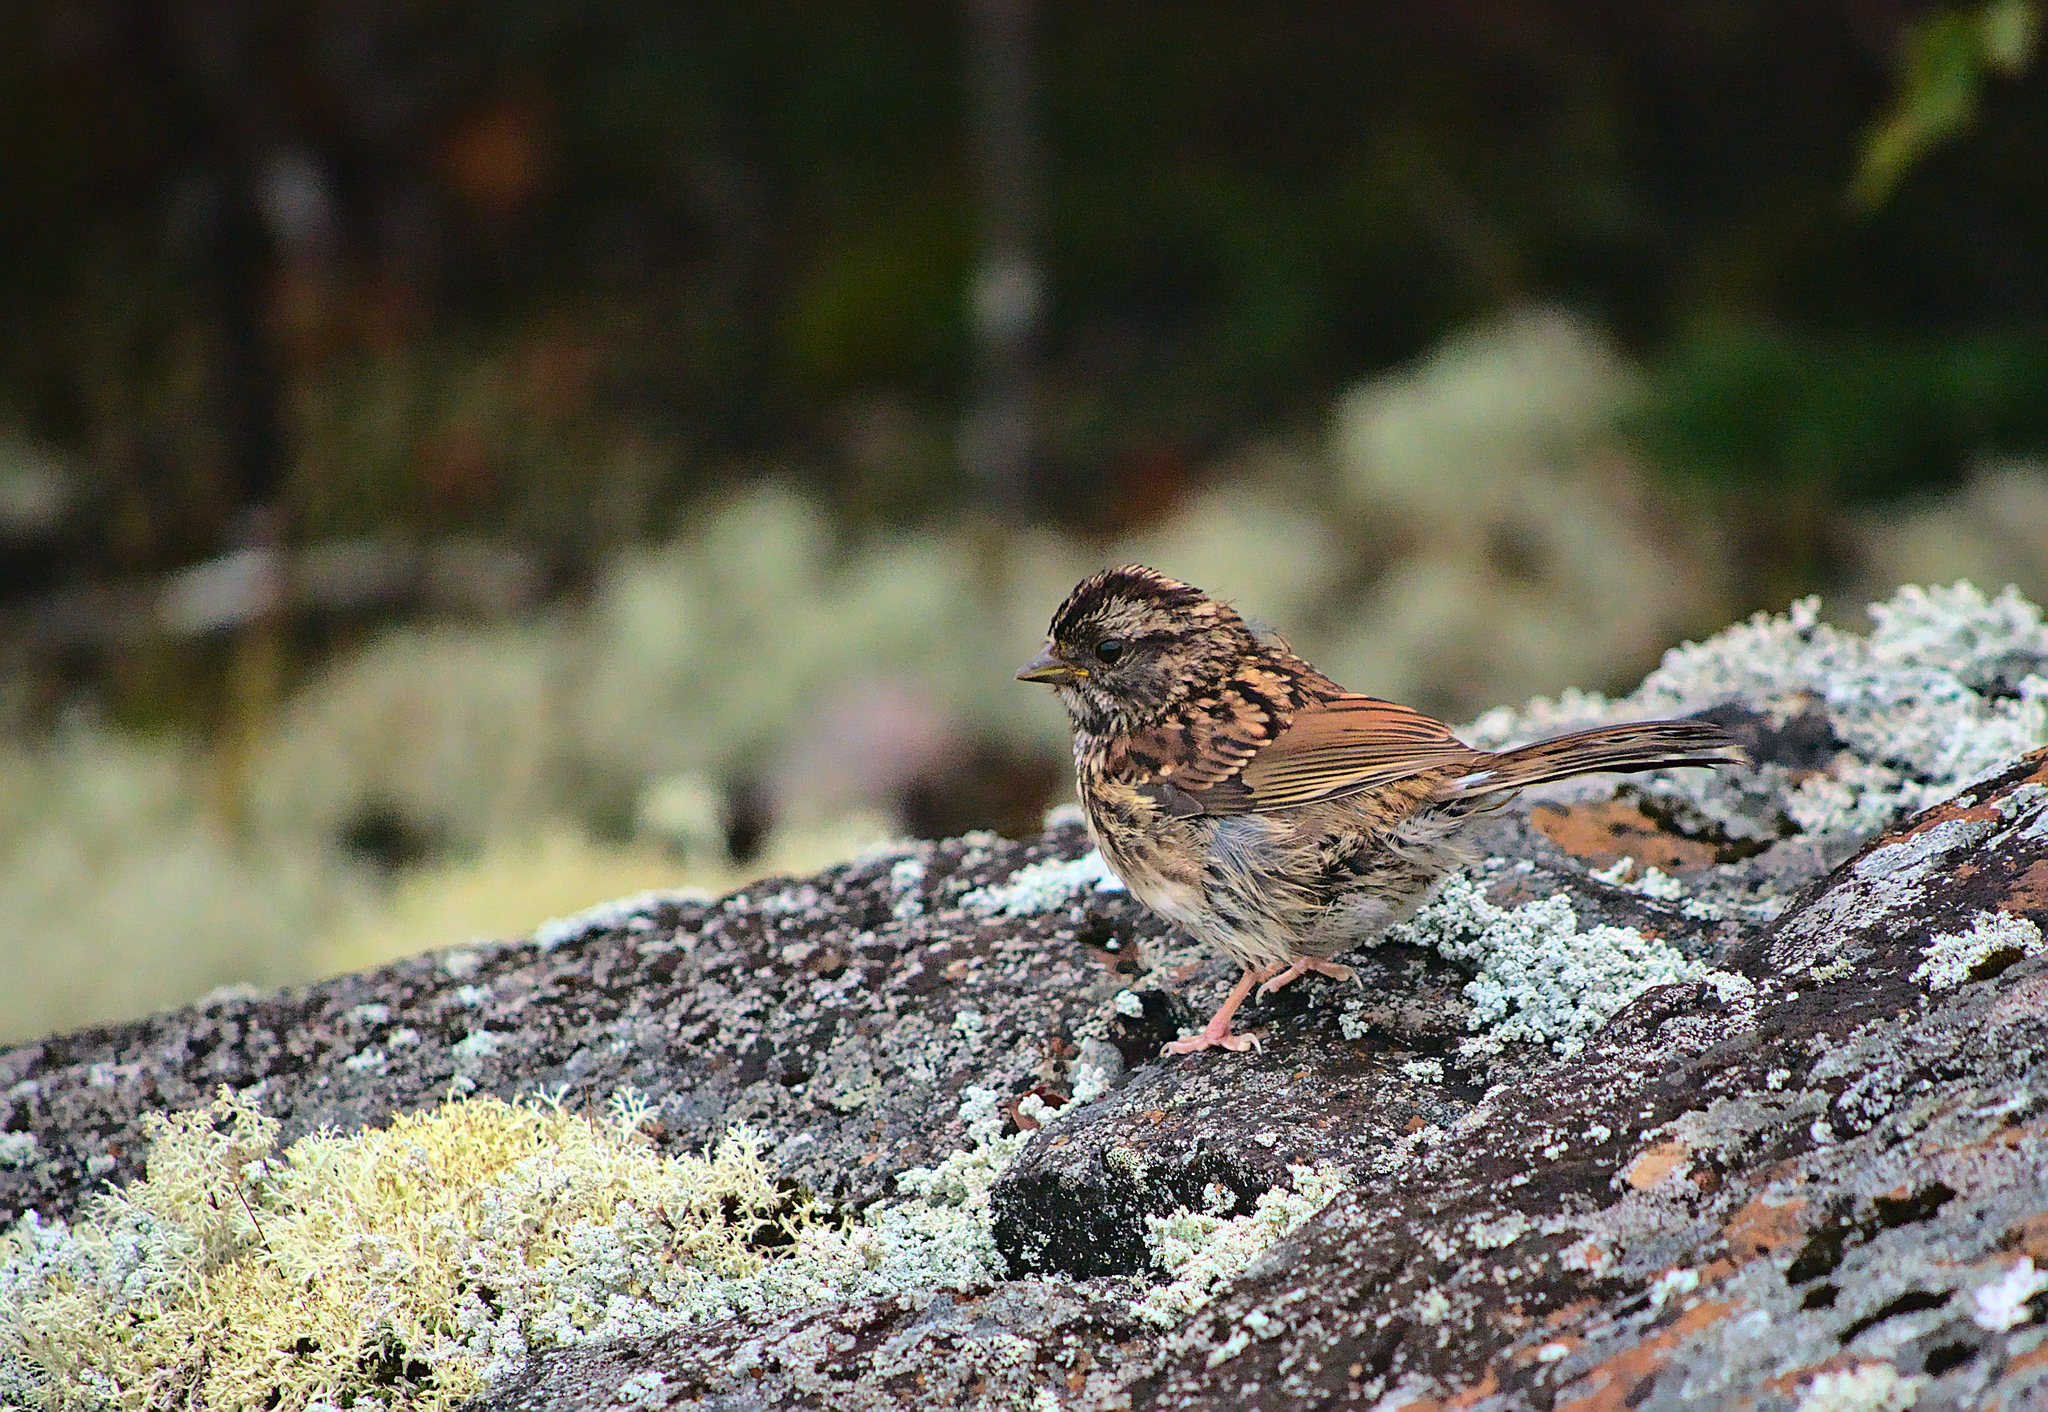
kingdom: Animalia
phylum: Chordata
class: Aves
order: Passeriformes
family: Passerellidae
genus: Zonotrichia
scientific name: Zonotrichia albicollis
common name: White-throated sparrow
